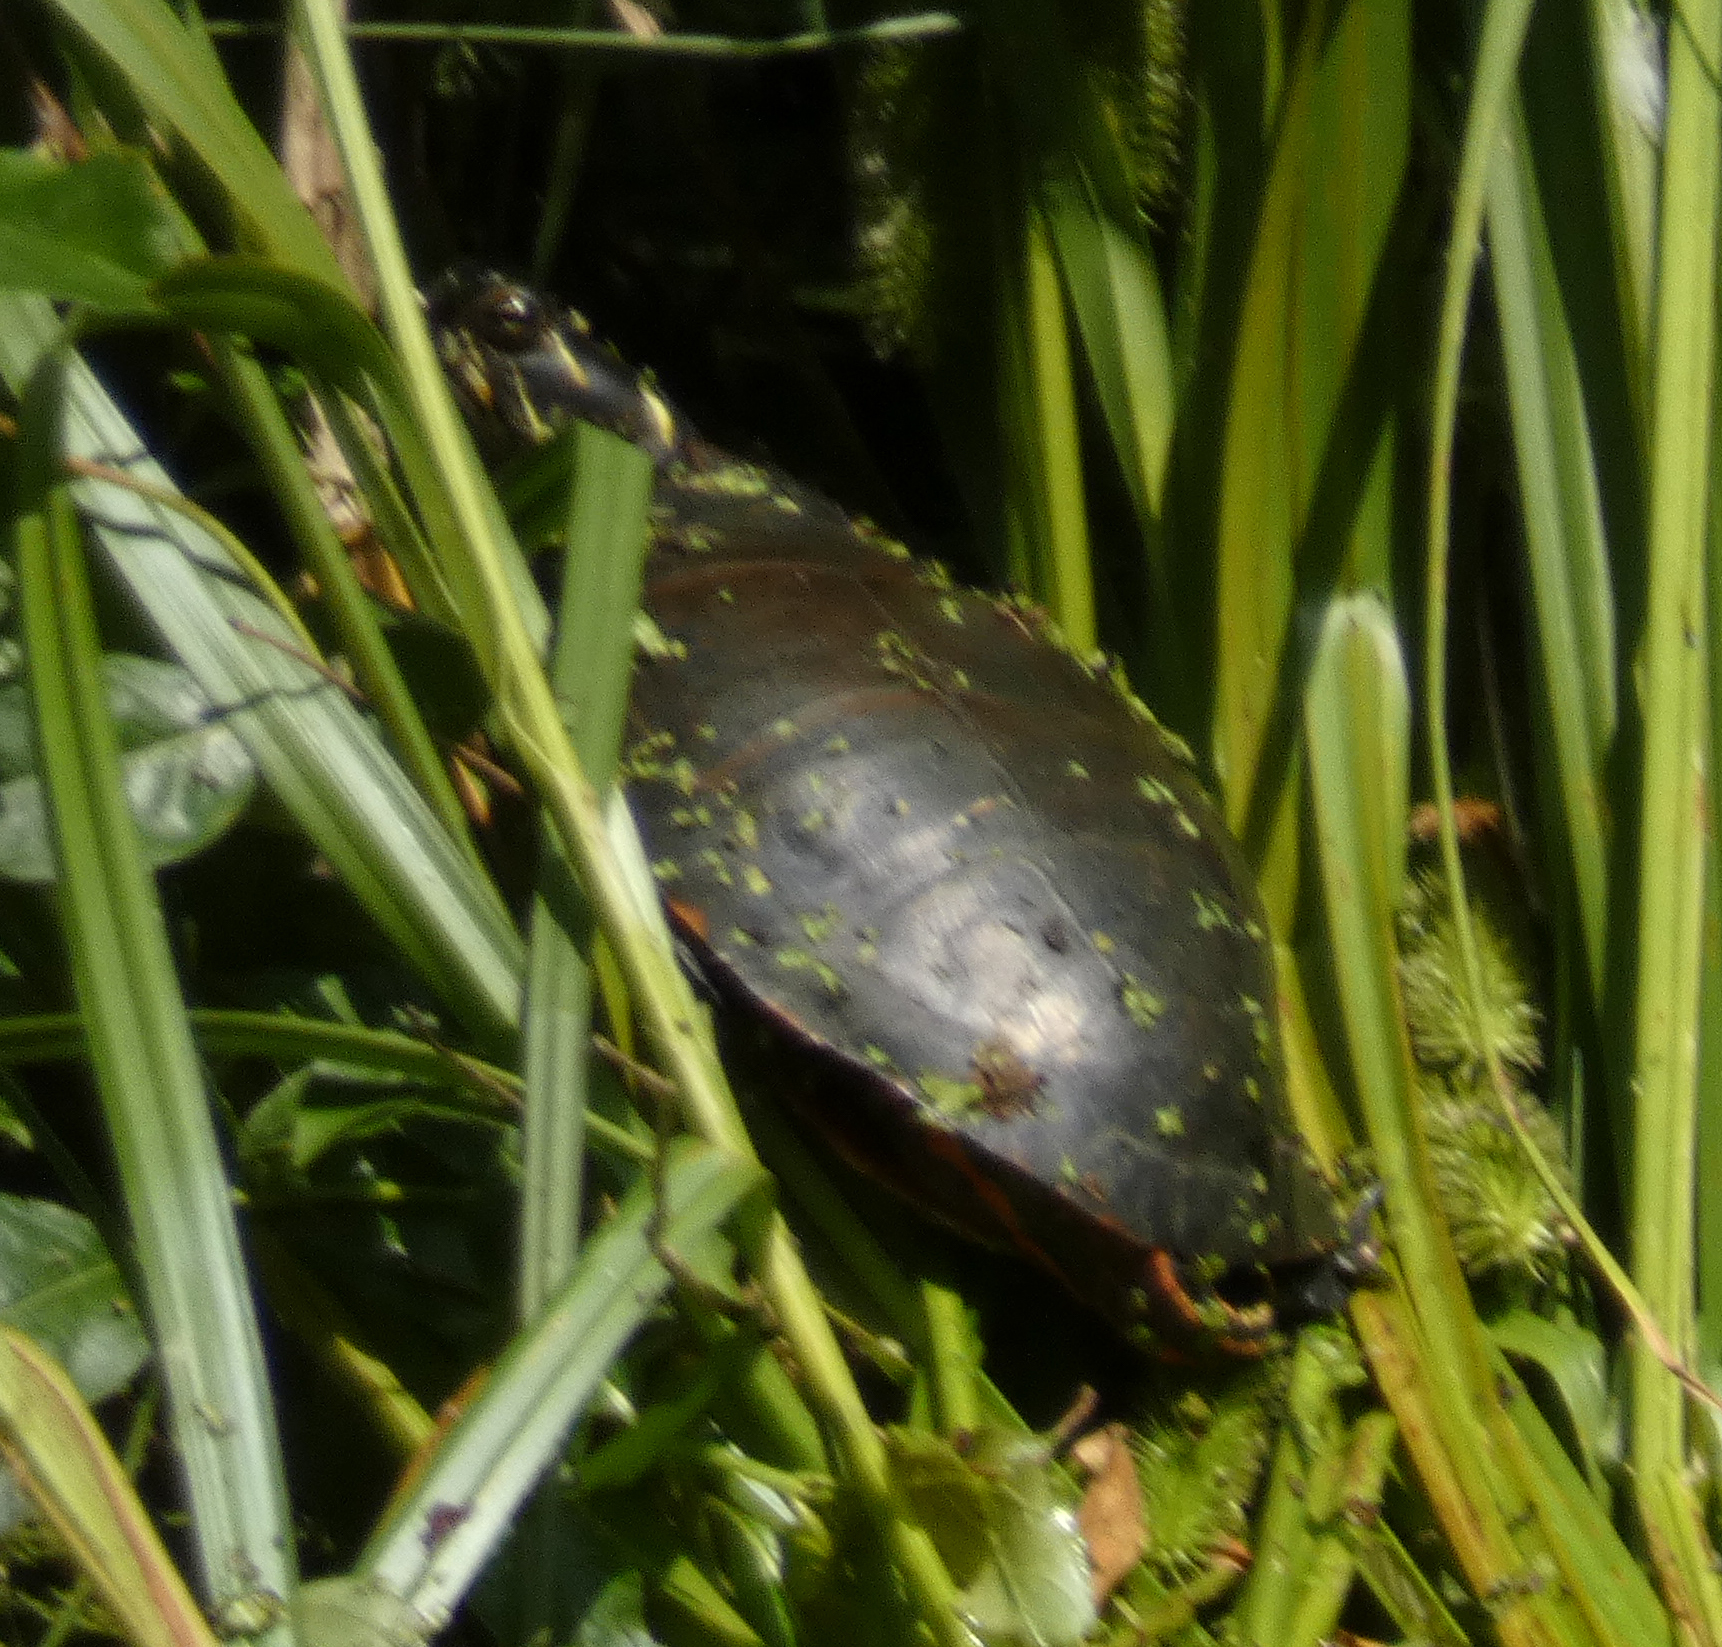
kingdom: Animalia
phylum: Chordata
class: Testudines
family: Emydidae
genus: Chrysemys
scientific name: Chrysemys picta
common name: Painted turtle
